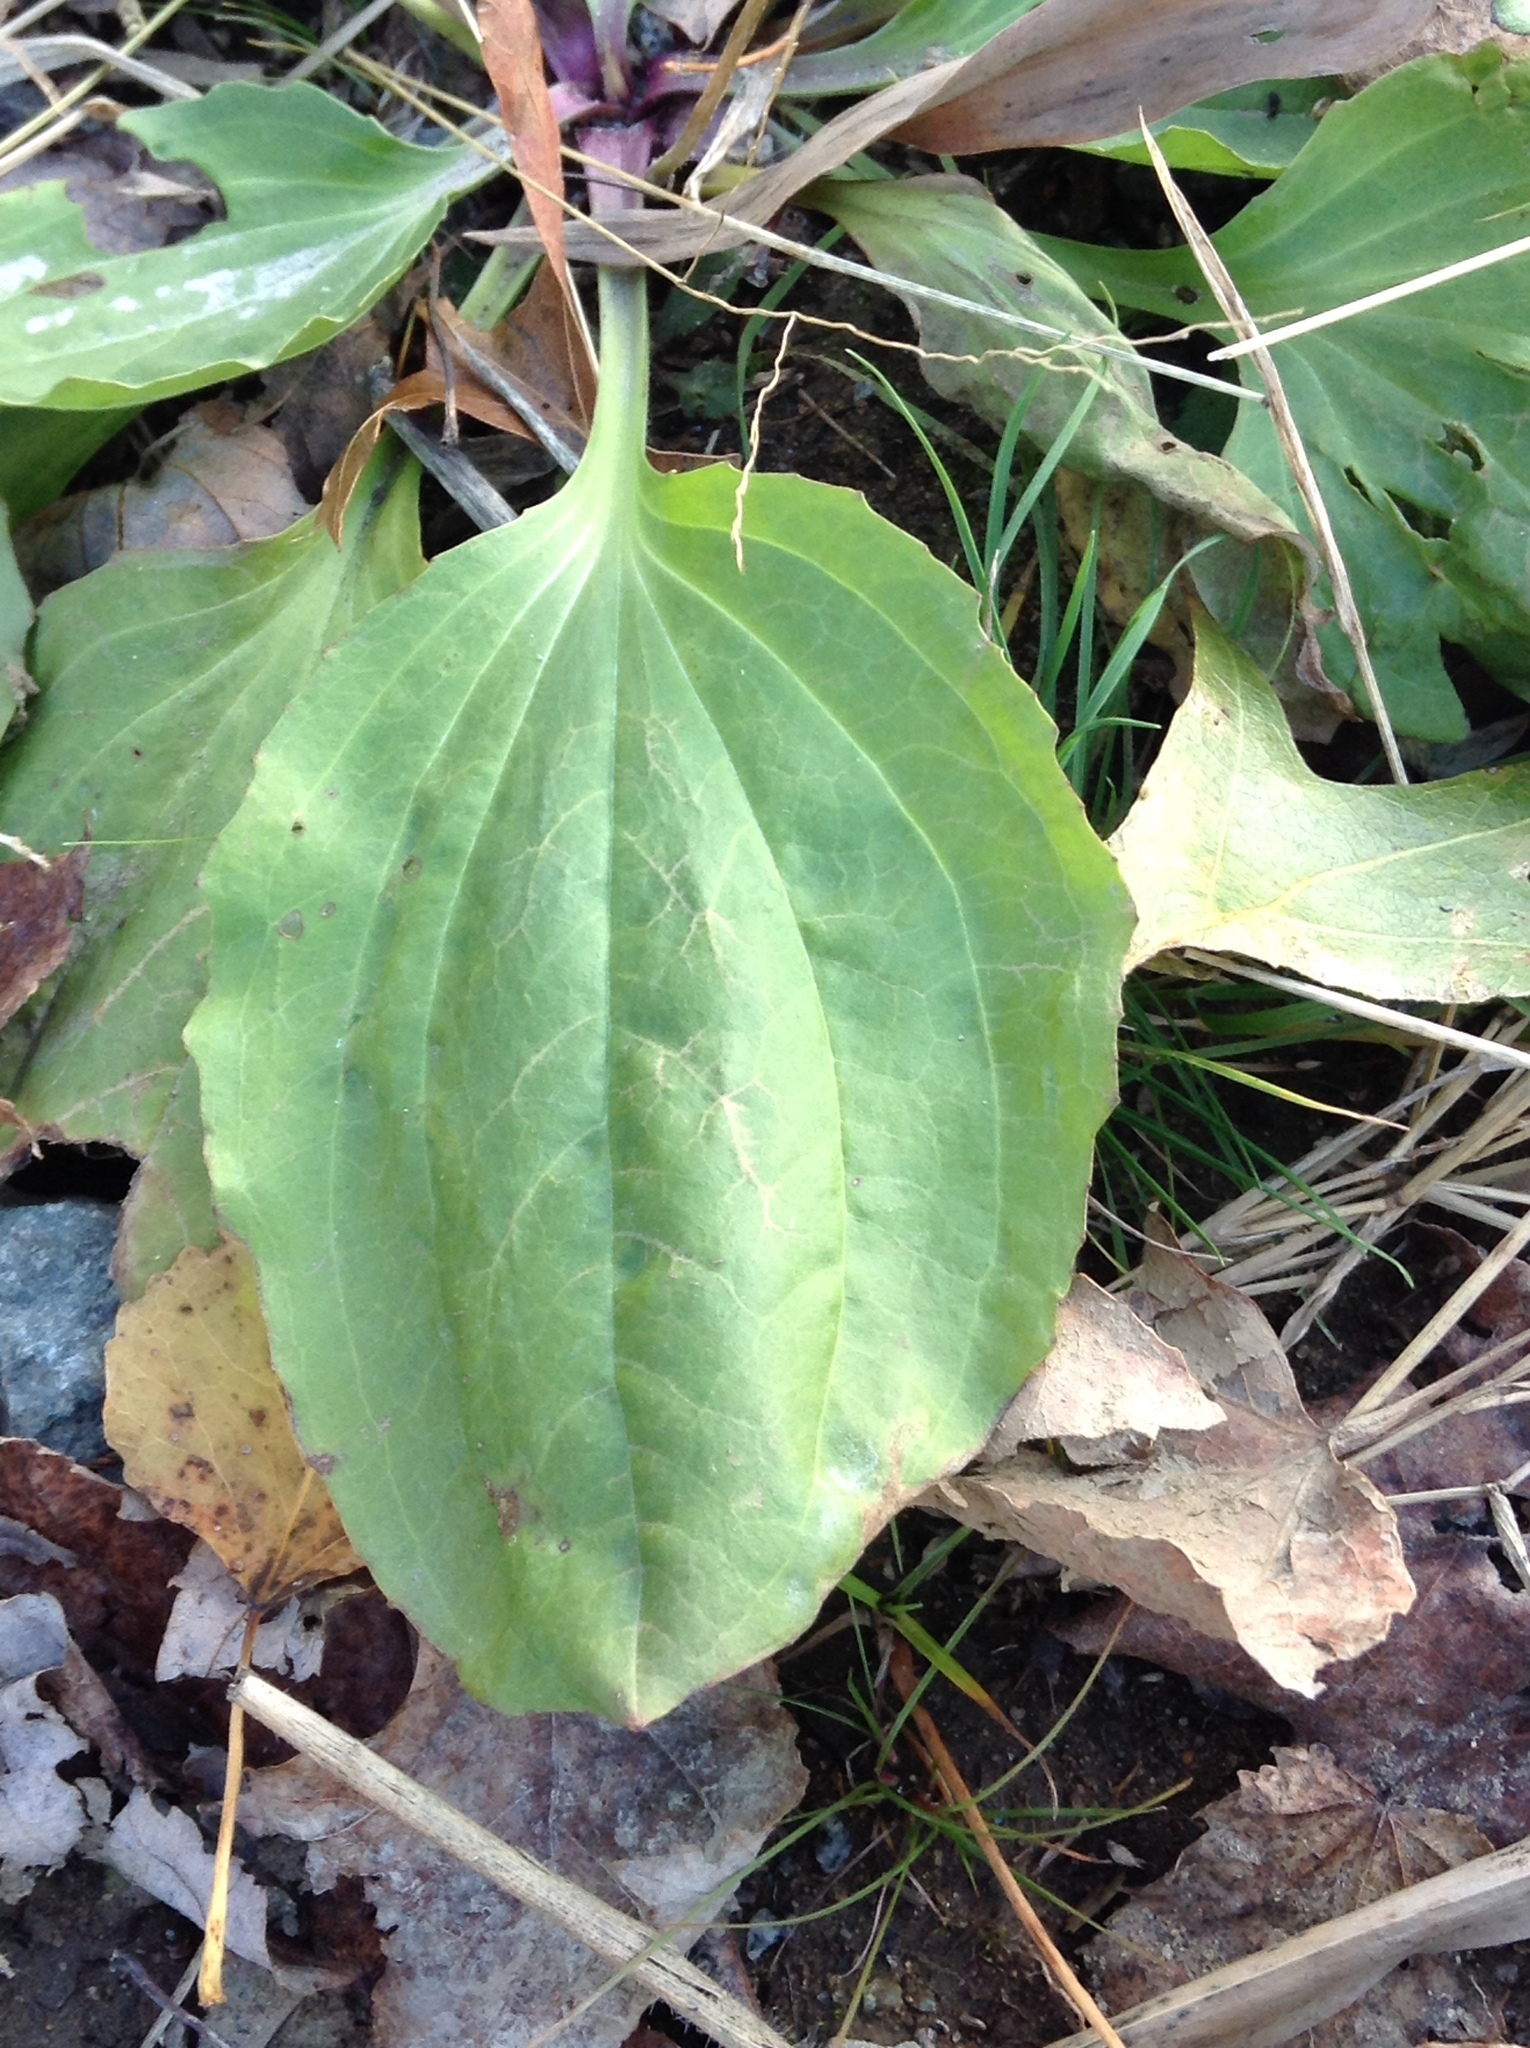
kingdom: Plantae
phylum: Tracheophyta
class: Magnoliopsida
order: Lamiales
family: Plantaginaceae
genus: Plantago
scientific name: Plantago major
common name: Common plantain
